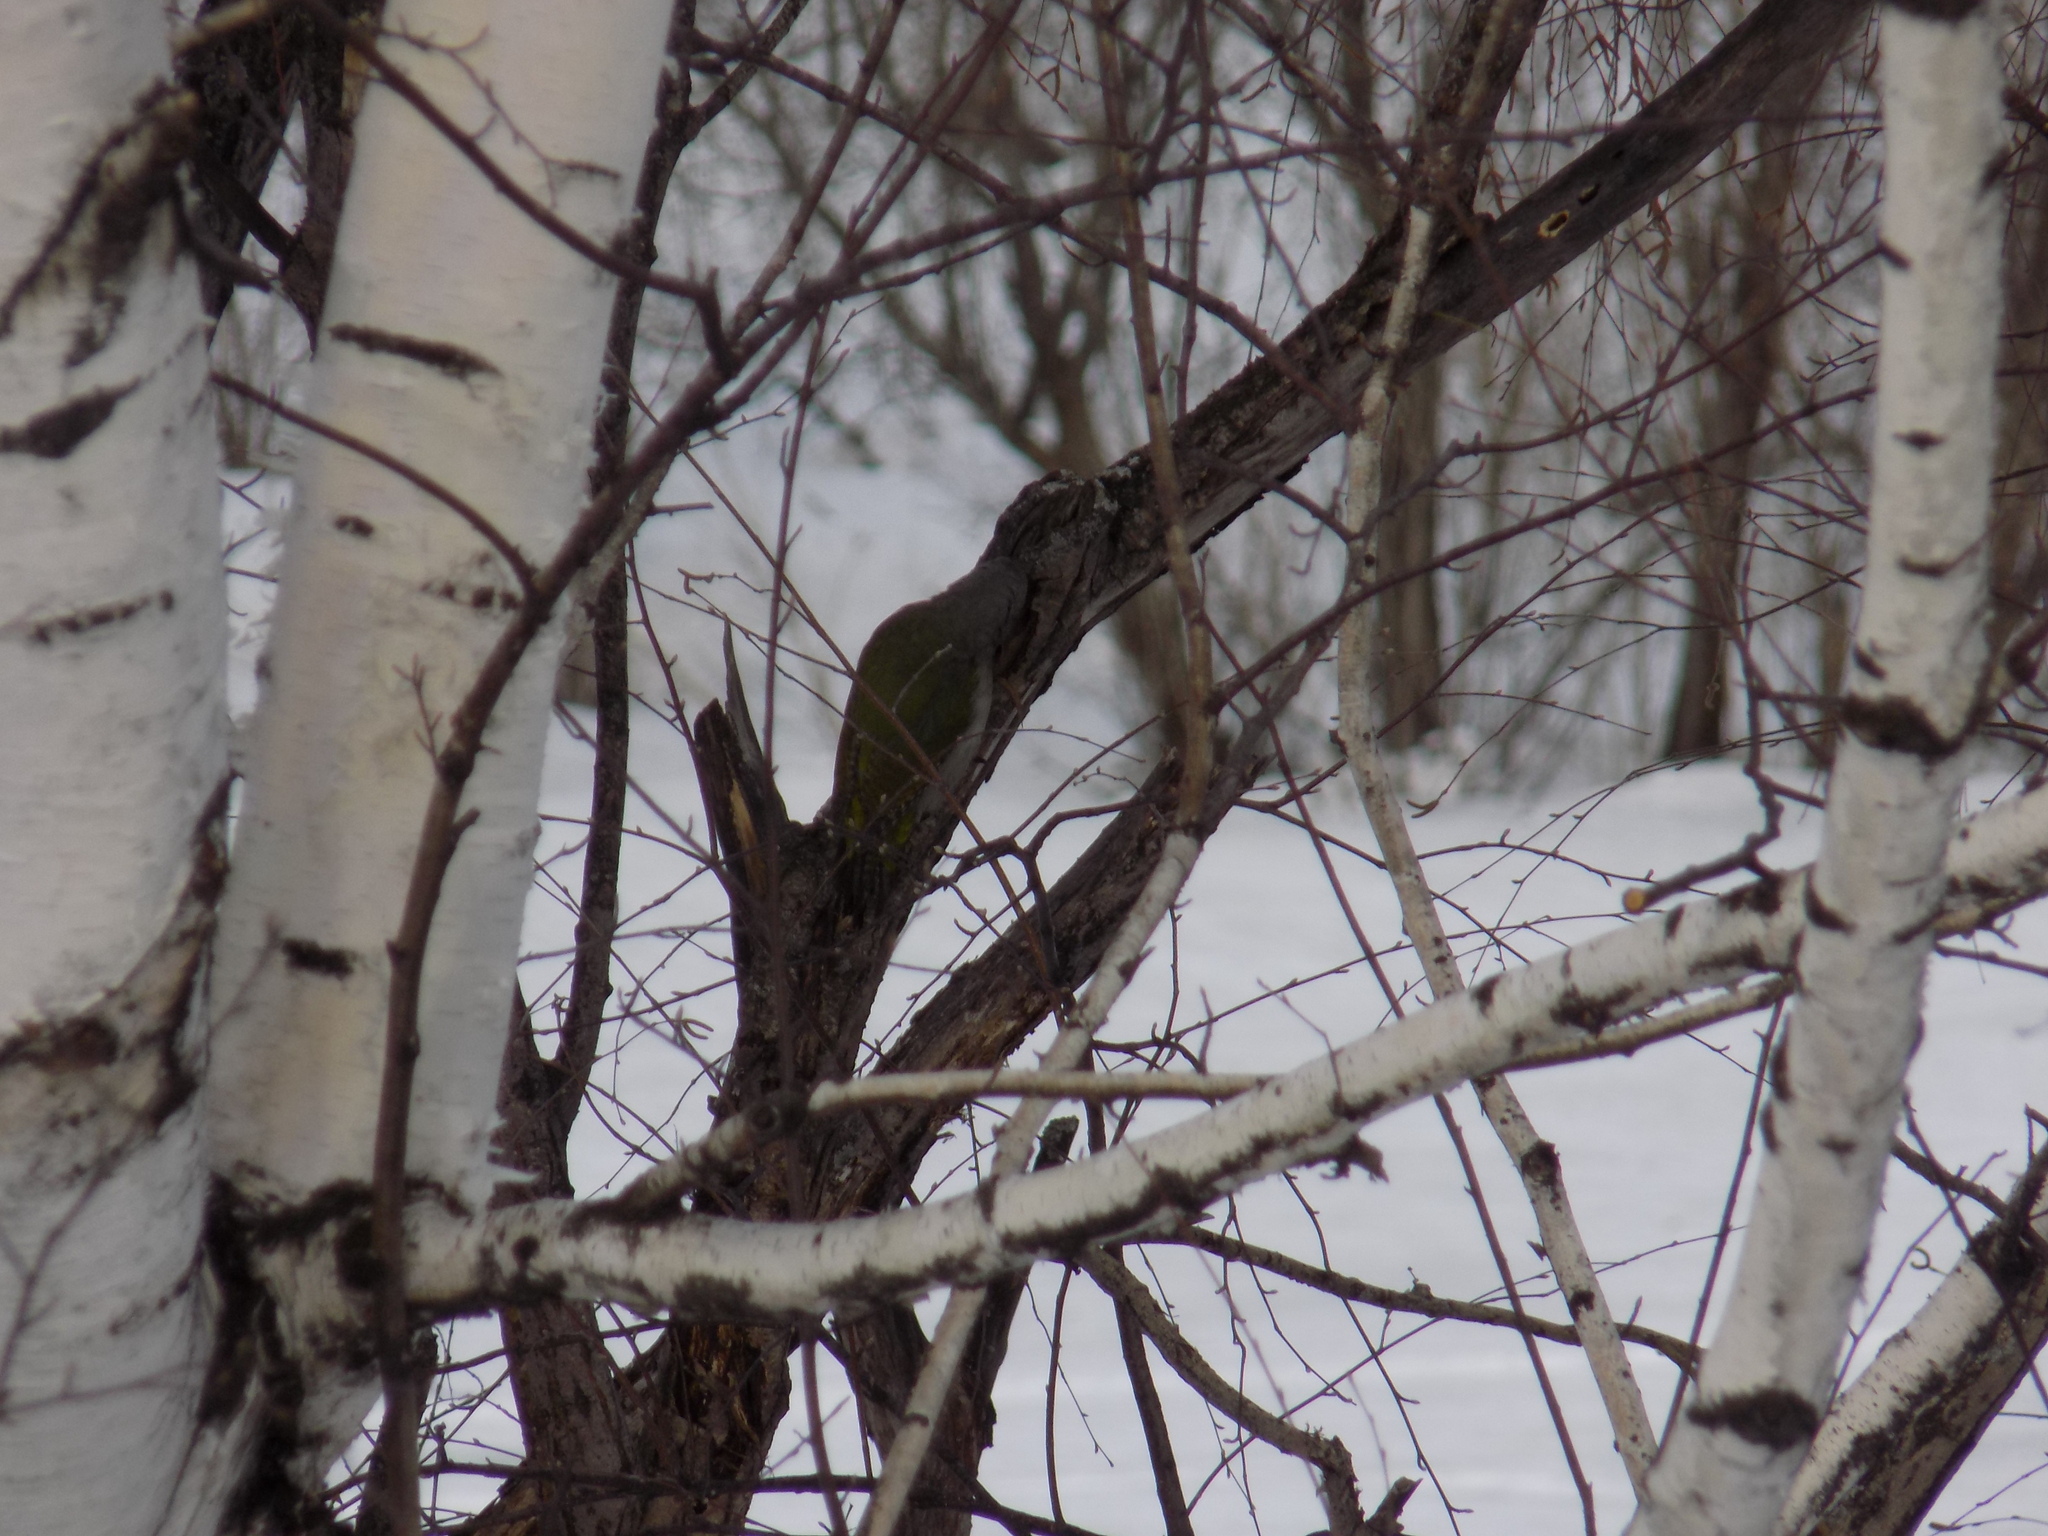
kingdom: Animalia
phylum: Chordata
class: Aves
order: Piciformes
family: Picidae
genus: Picus
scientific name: Picus canus
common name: Grey-headed woodpecker
